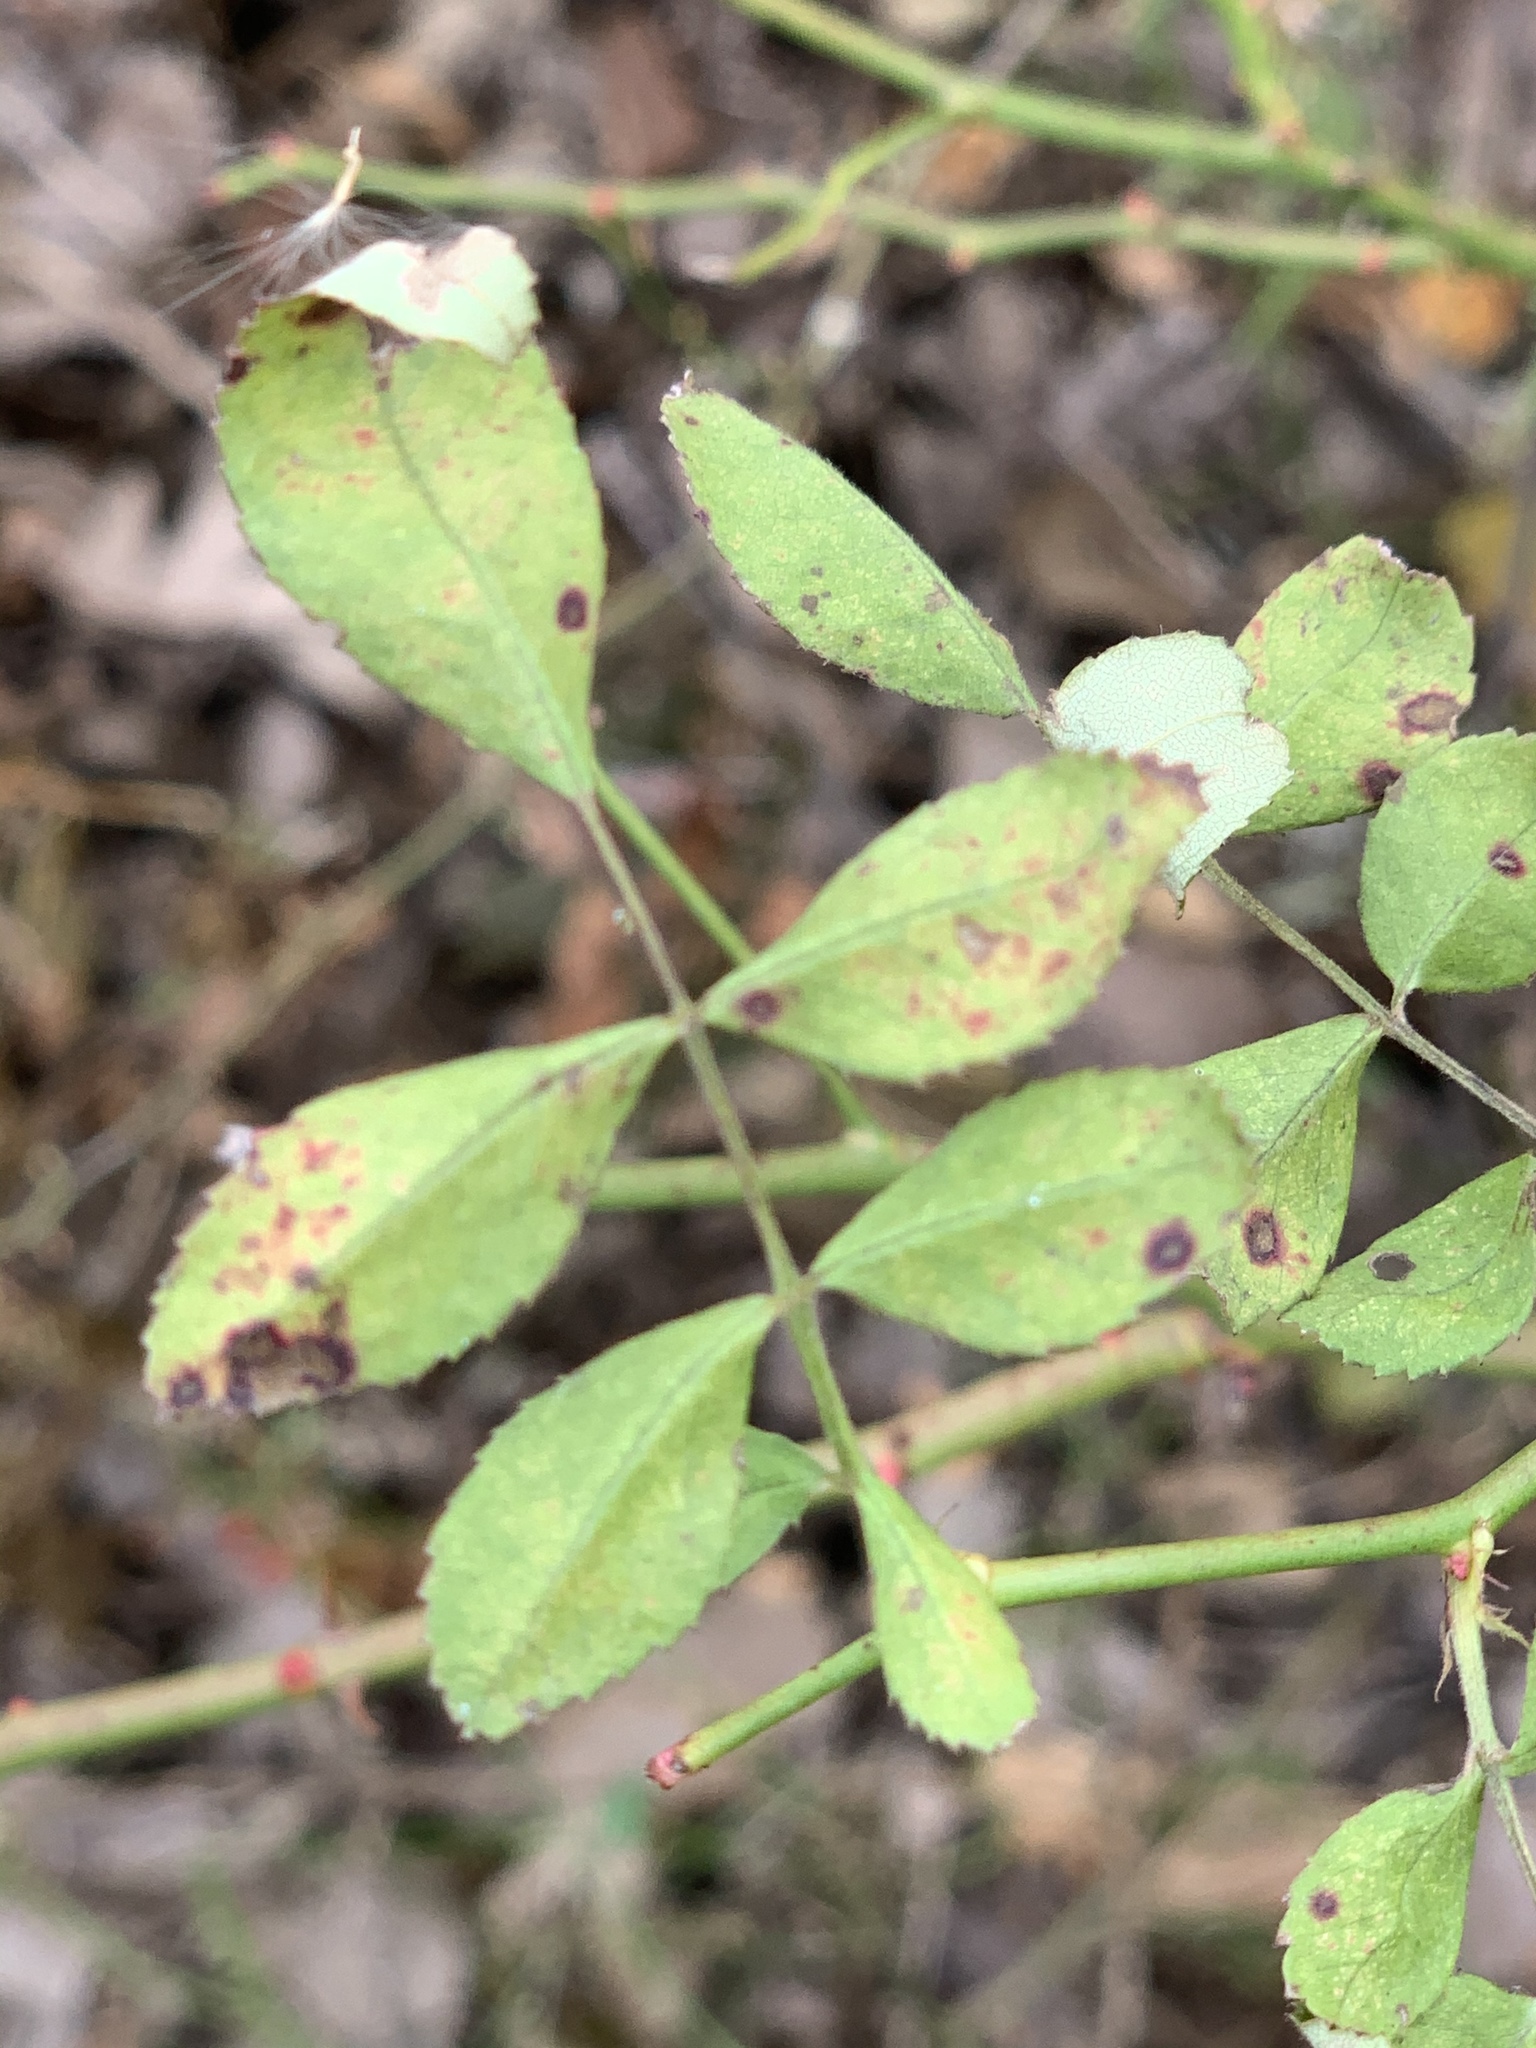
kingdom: Plantae
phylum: Tracheophyta
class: Magnoliopsida
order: Rosales
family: Rosaceae
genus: Rosa
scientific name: Rosa multiflora
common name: Multiflora rose
